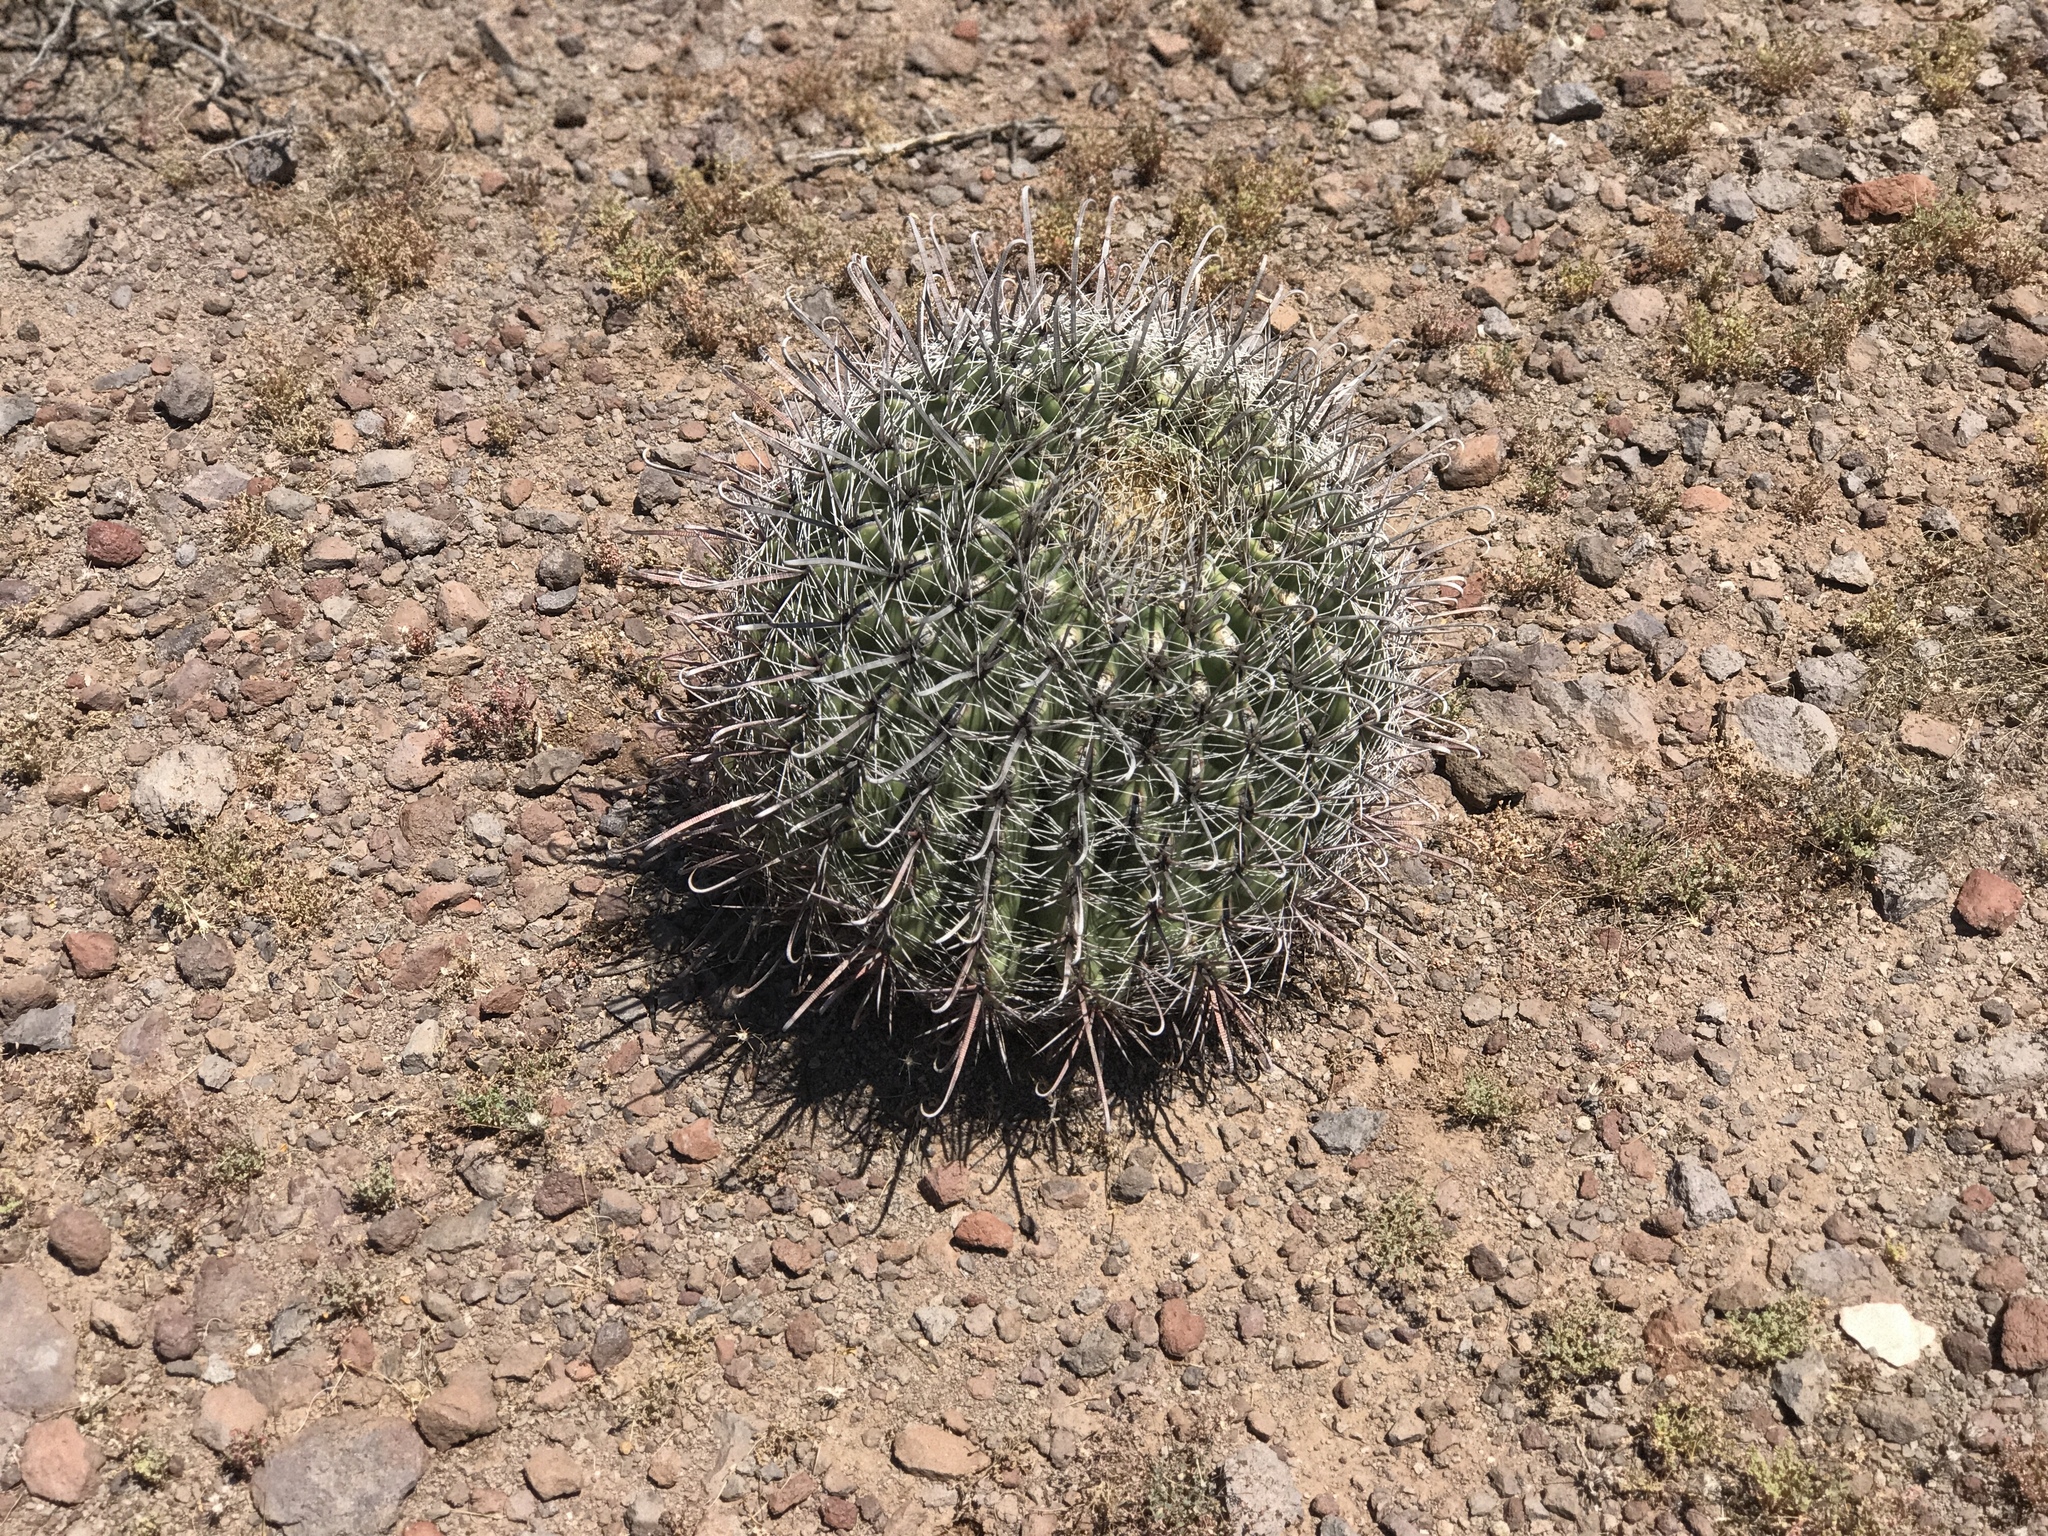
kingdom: Plantae
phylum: Tracheophyta
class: Magnoliopsida
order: Caryophyllales
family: Cactaceae
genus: Ferocactus
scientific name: Ferocactus wislizeni
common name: Candy barrel cactus
